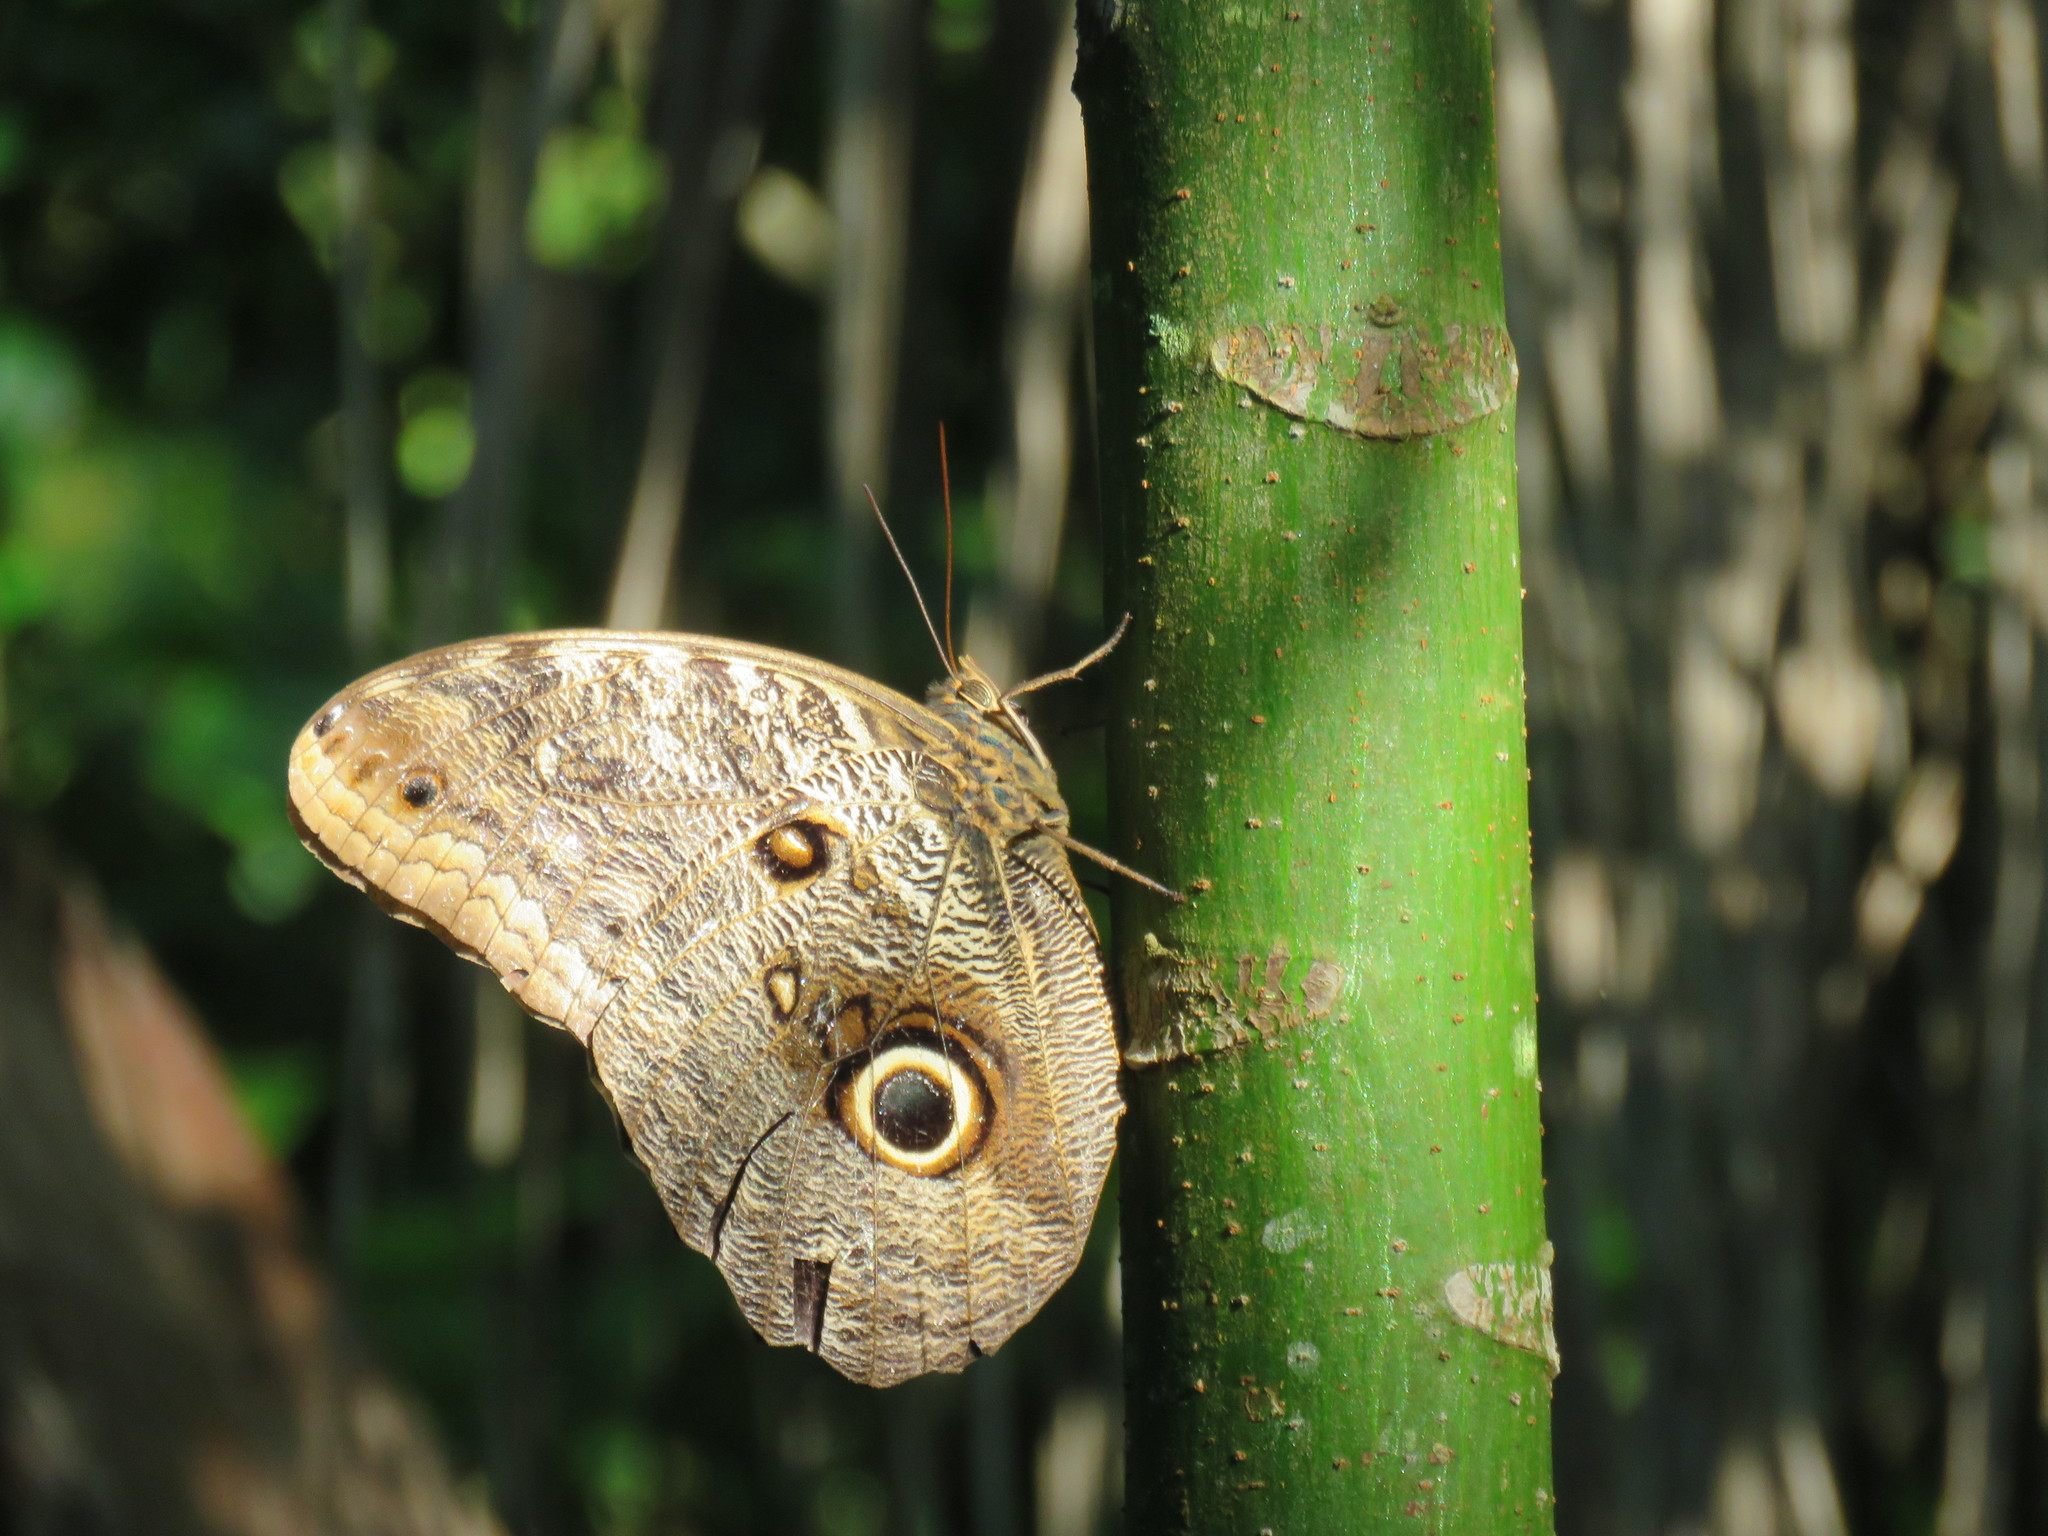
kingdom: Animalia
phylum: Arthropoda
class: Insecta
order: Lepidoptera
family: Nymphalidae
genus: Caligo
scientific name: Caligo brasiliensis
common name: Dark owl-butterfly
